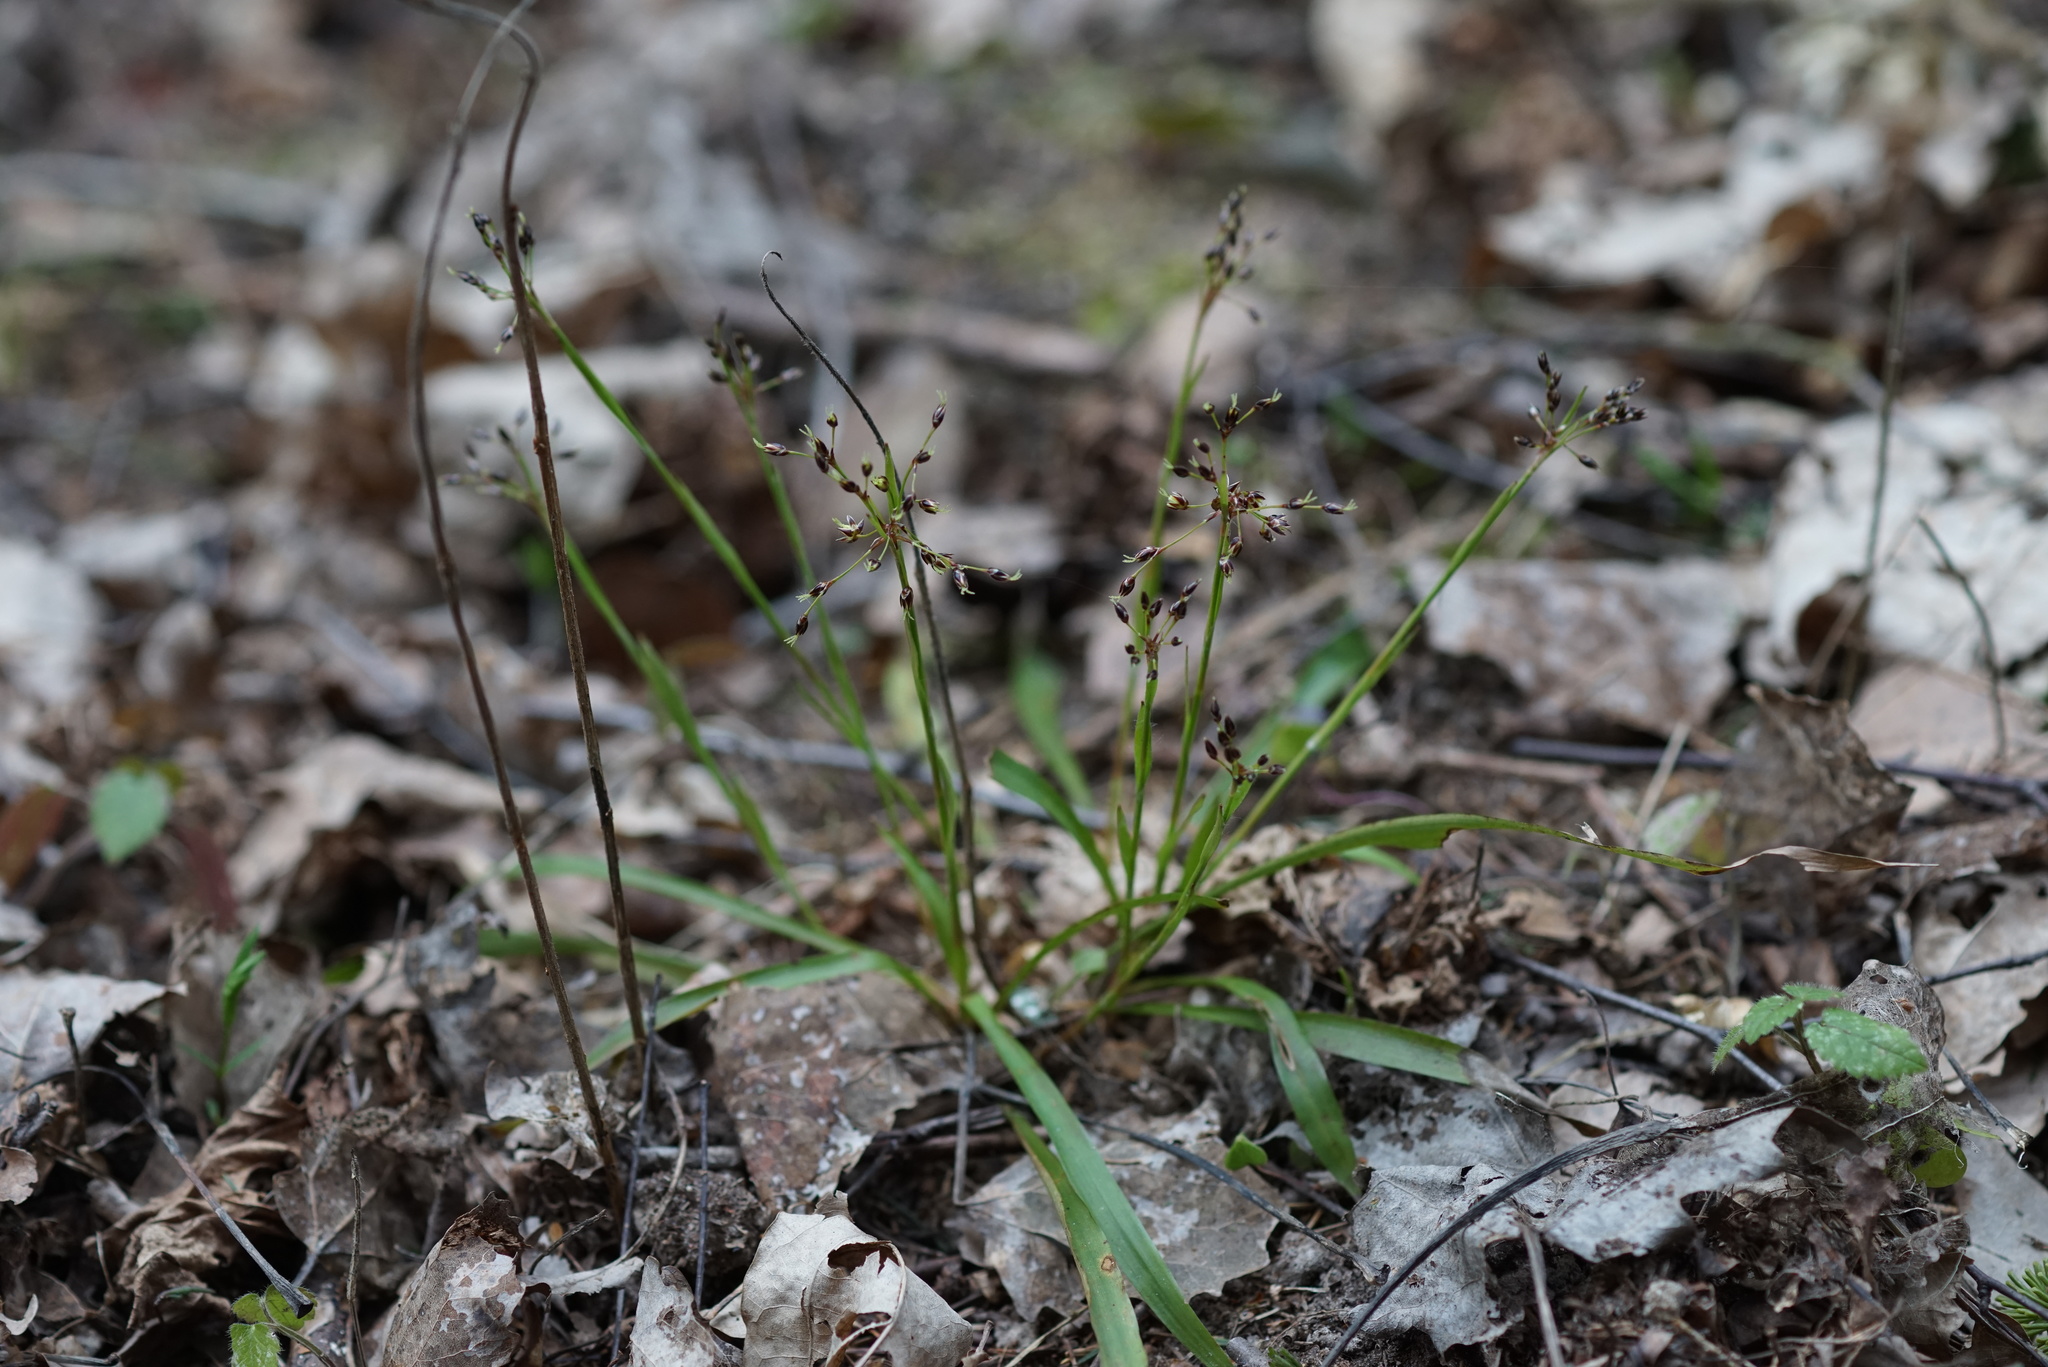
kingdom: Plantae
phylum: Tracheophyta
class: Liliopsida
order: Poales
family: Juncaceae
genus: Luzula
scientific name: Luzula pilosa
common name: Hairy wood-rush
